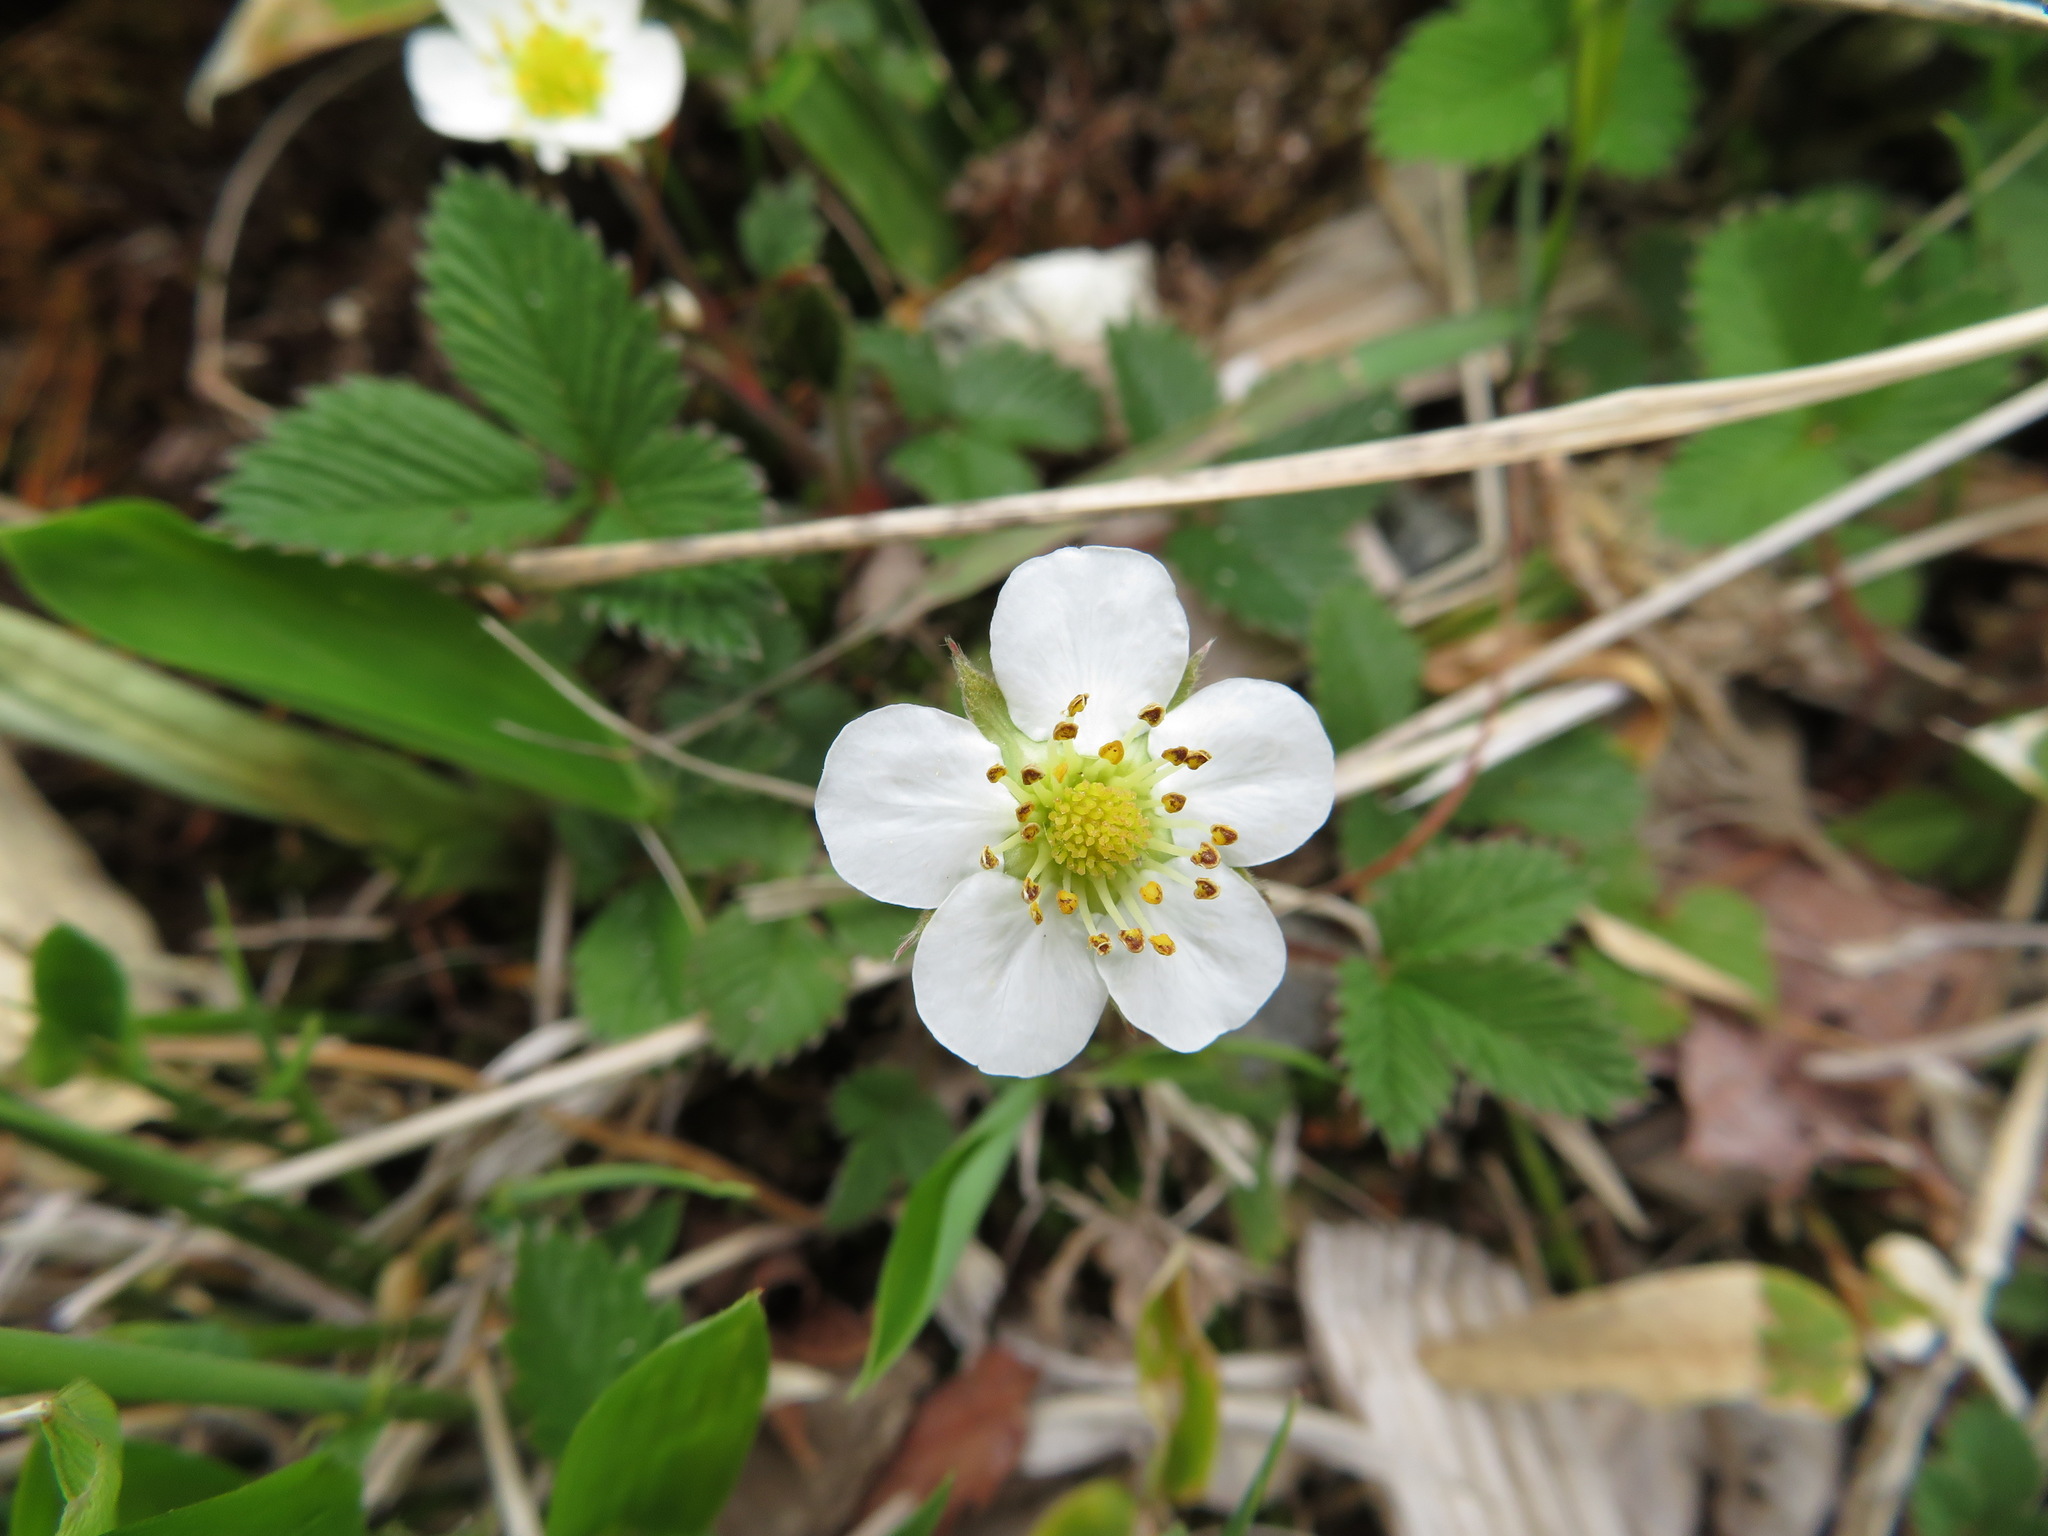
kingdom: Plantae
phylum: Tracheophyta
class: Magnoliopsida
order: Rosales
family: Rosaceae
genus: Fragaria
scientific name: Fragaria nipponica
